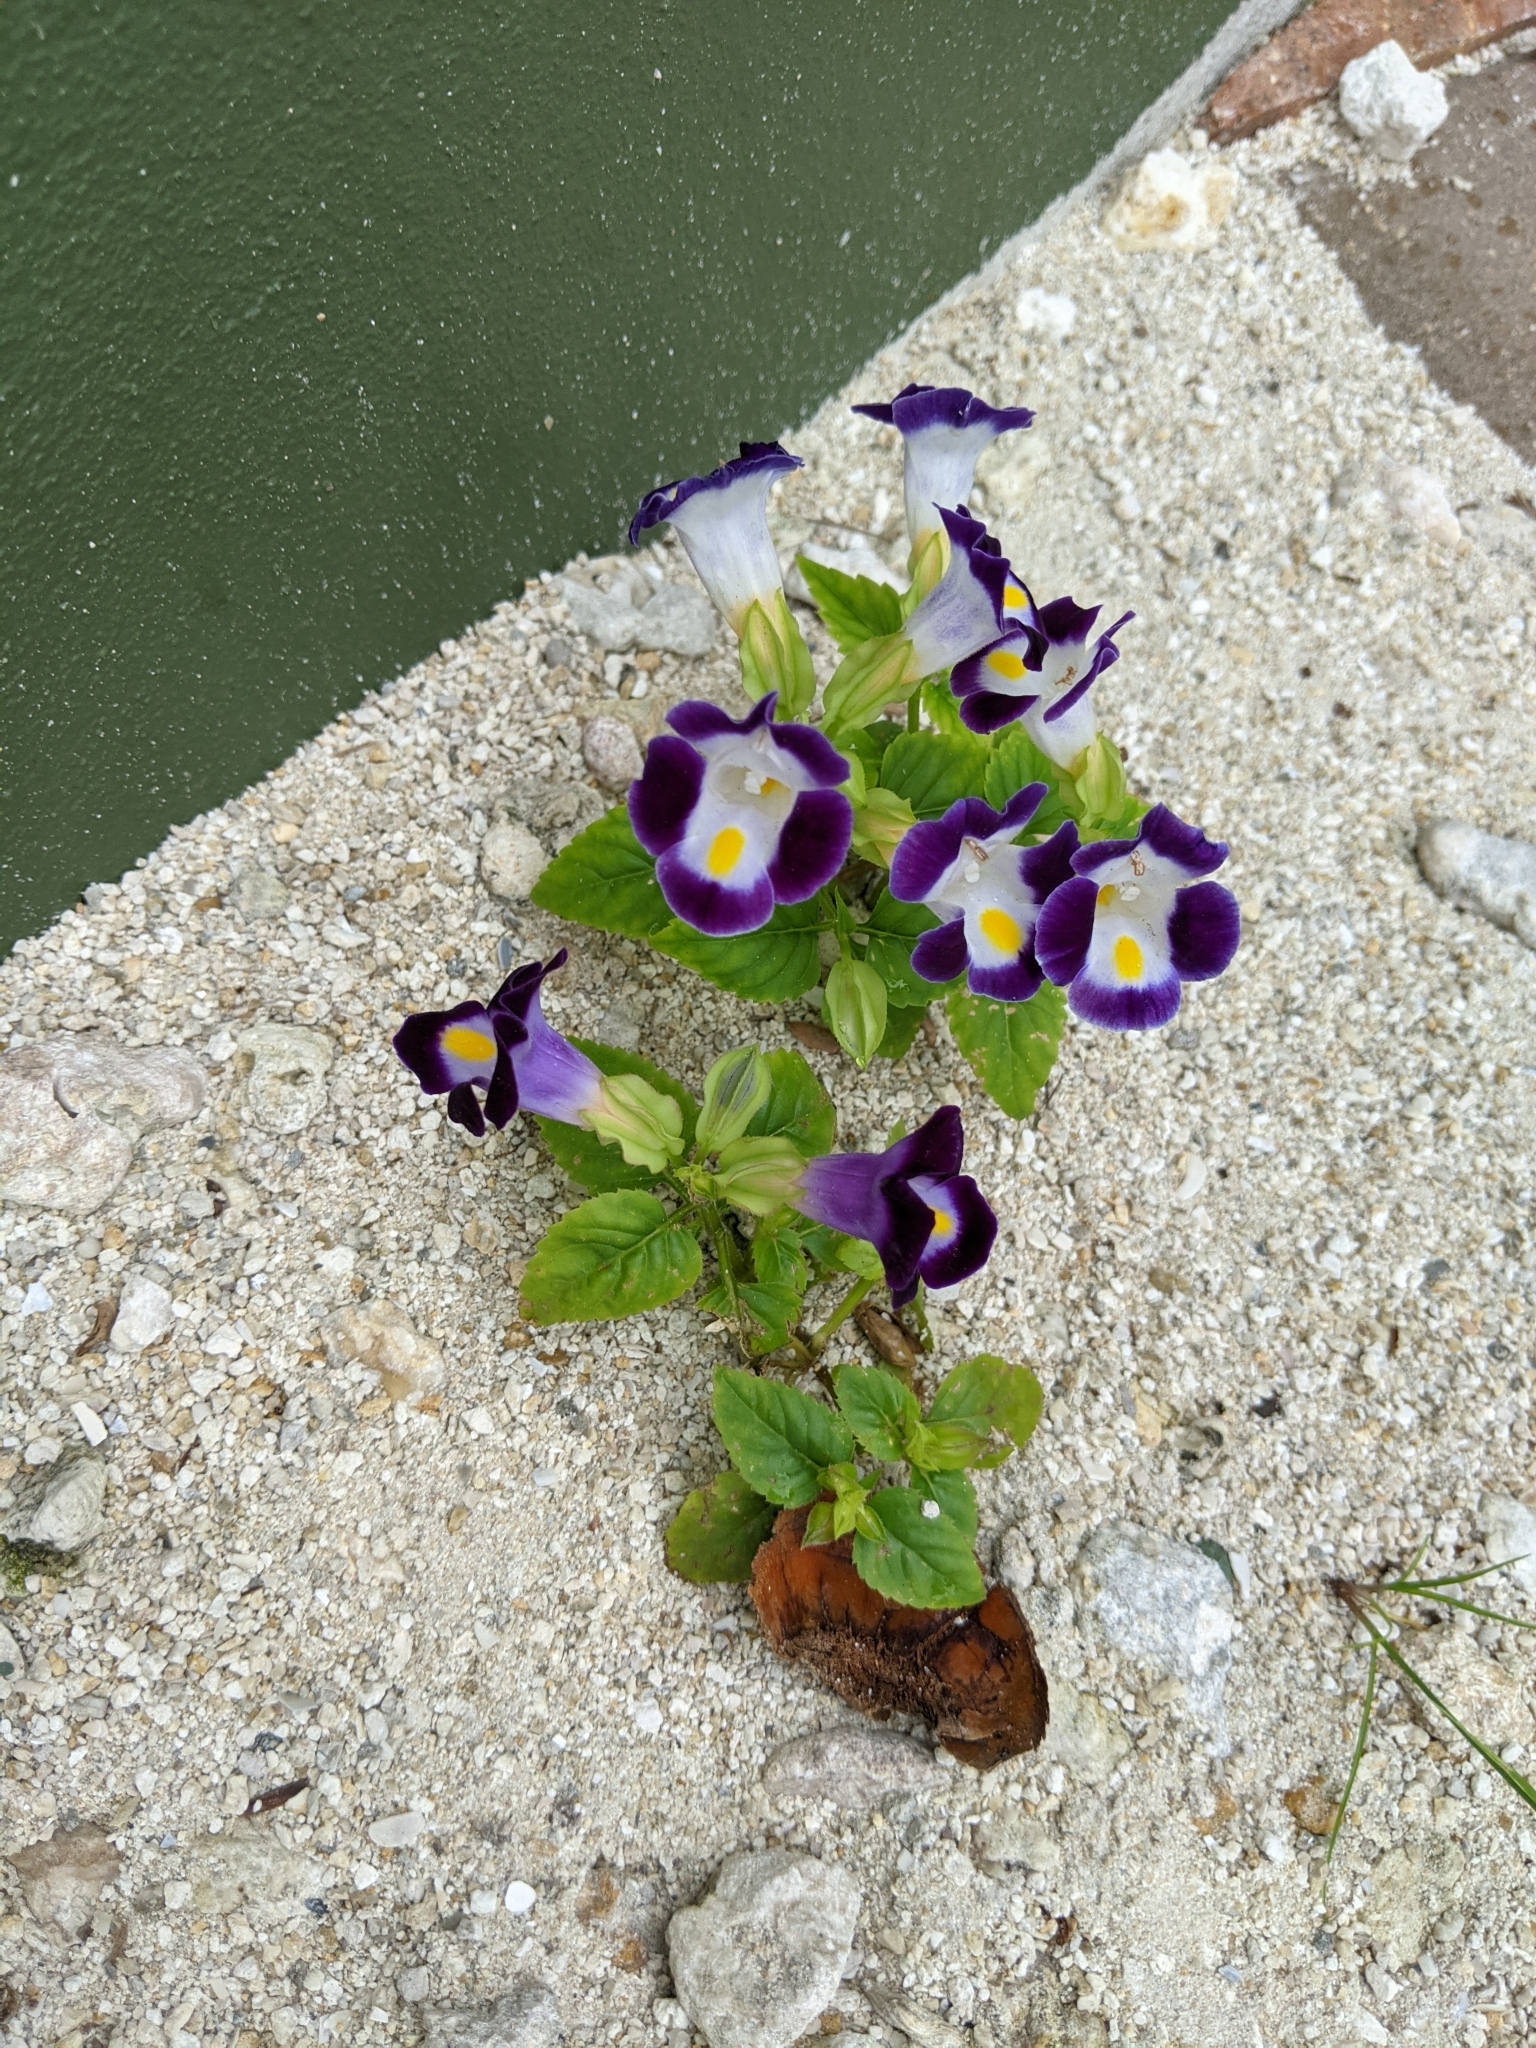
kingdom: Plantae
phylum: Tracheophyta
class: Magnoliopsida
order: Lamiales
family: Linderniaceae
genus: Torenia
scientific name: Torenia fournieri
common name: Bluewings
